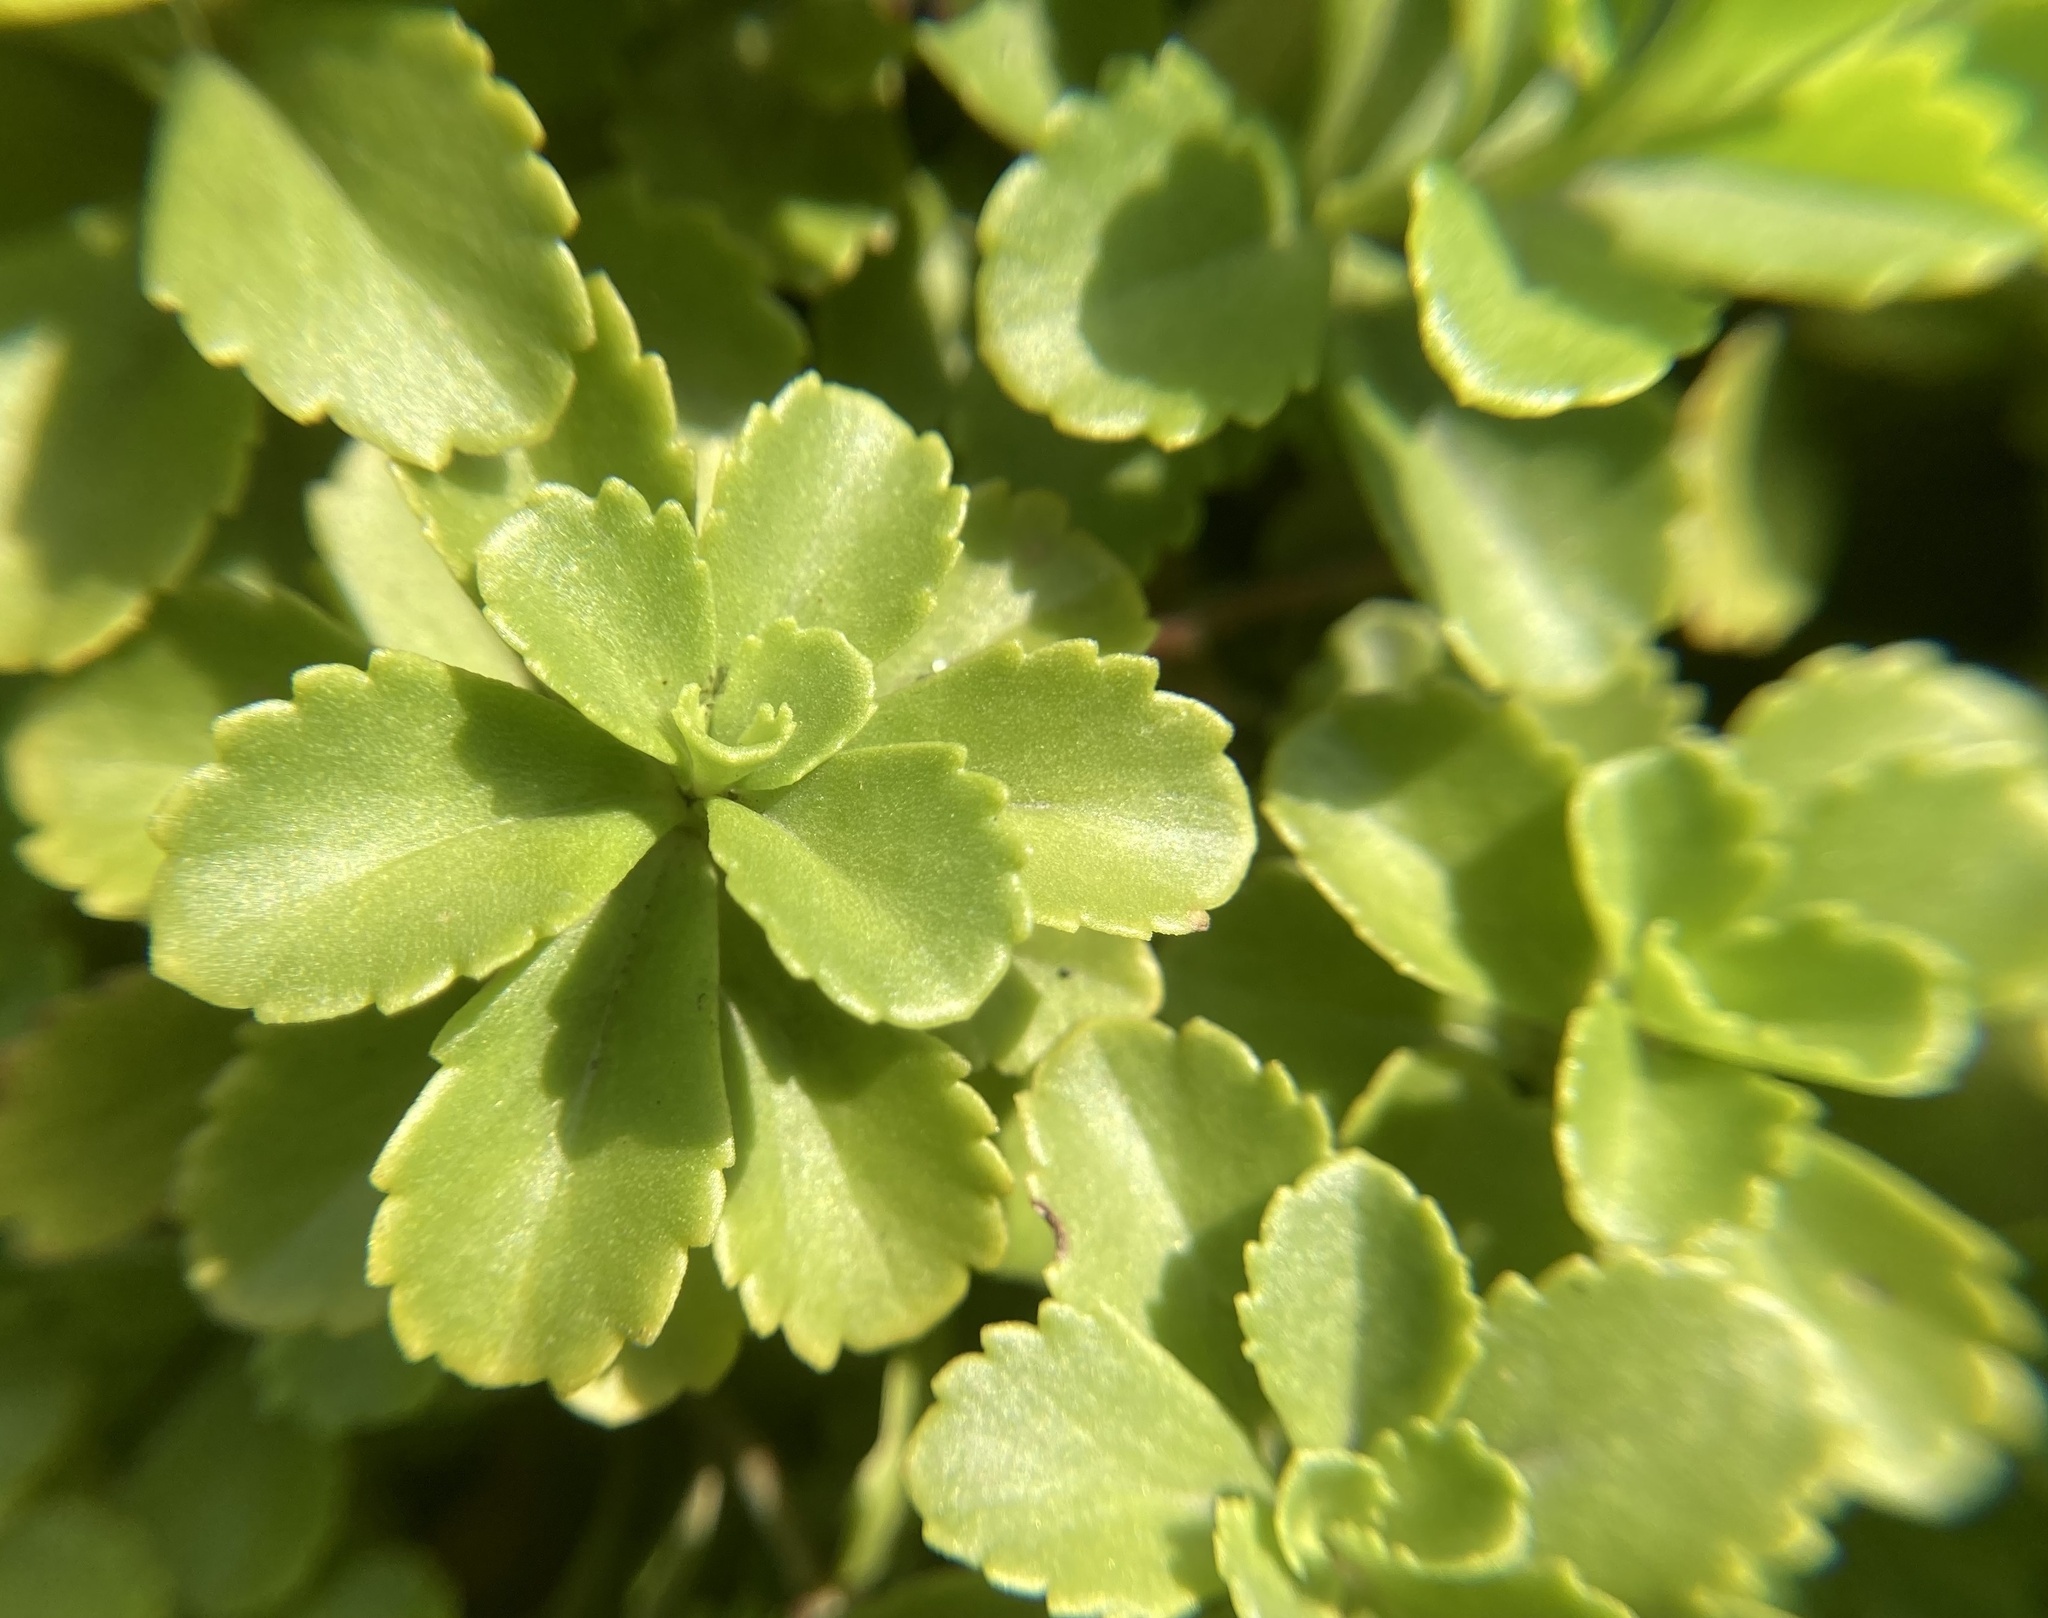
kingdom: Plantae
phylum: Tracheophyta
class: Magnoliopsida
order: Saxifragales
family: Crassulaceae
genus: Phedimus
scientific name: Phedimus ellacombeanus
